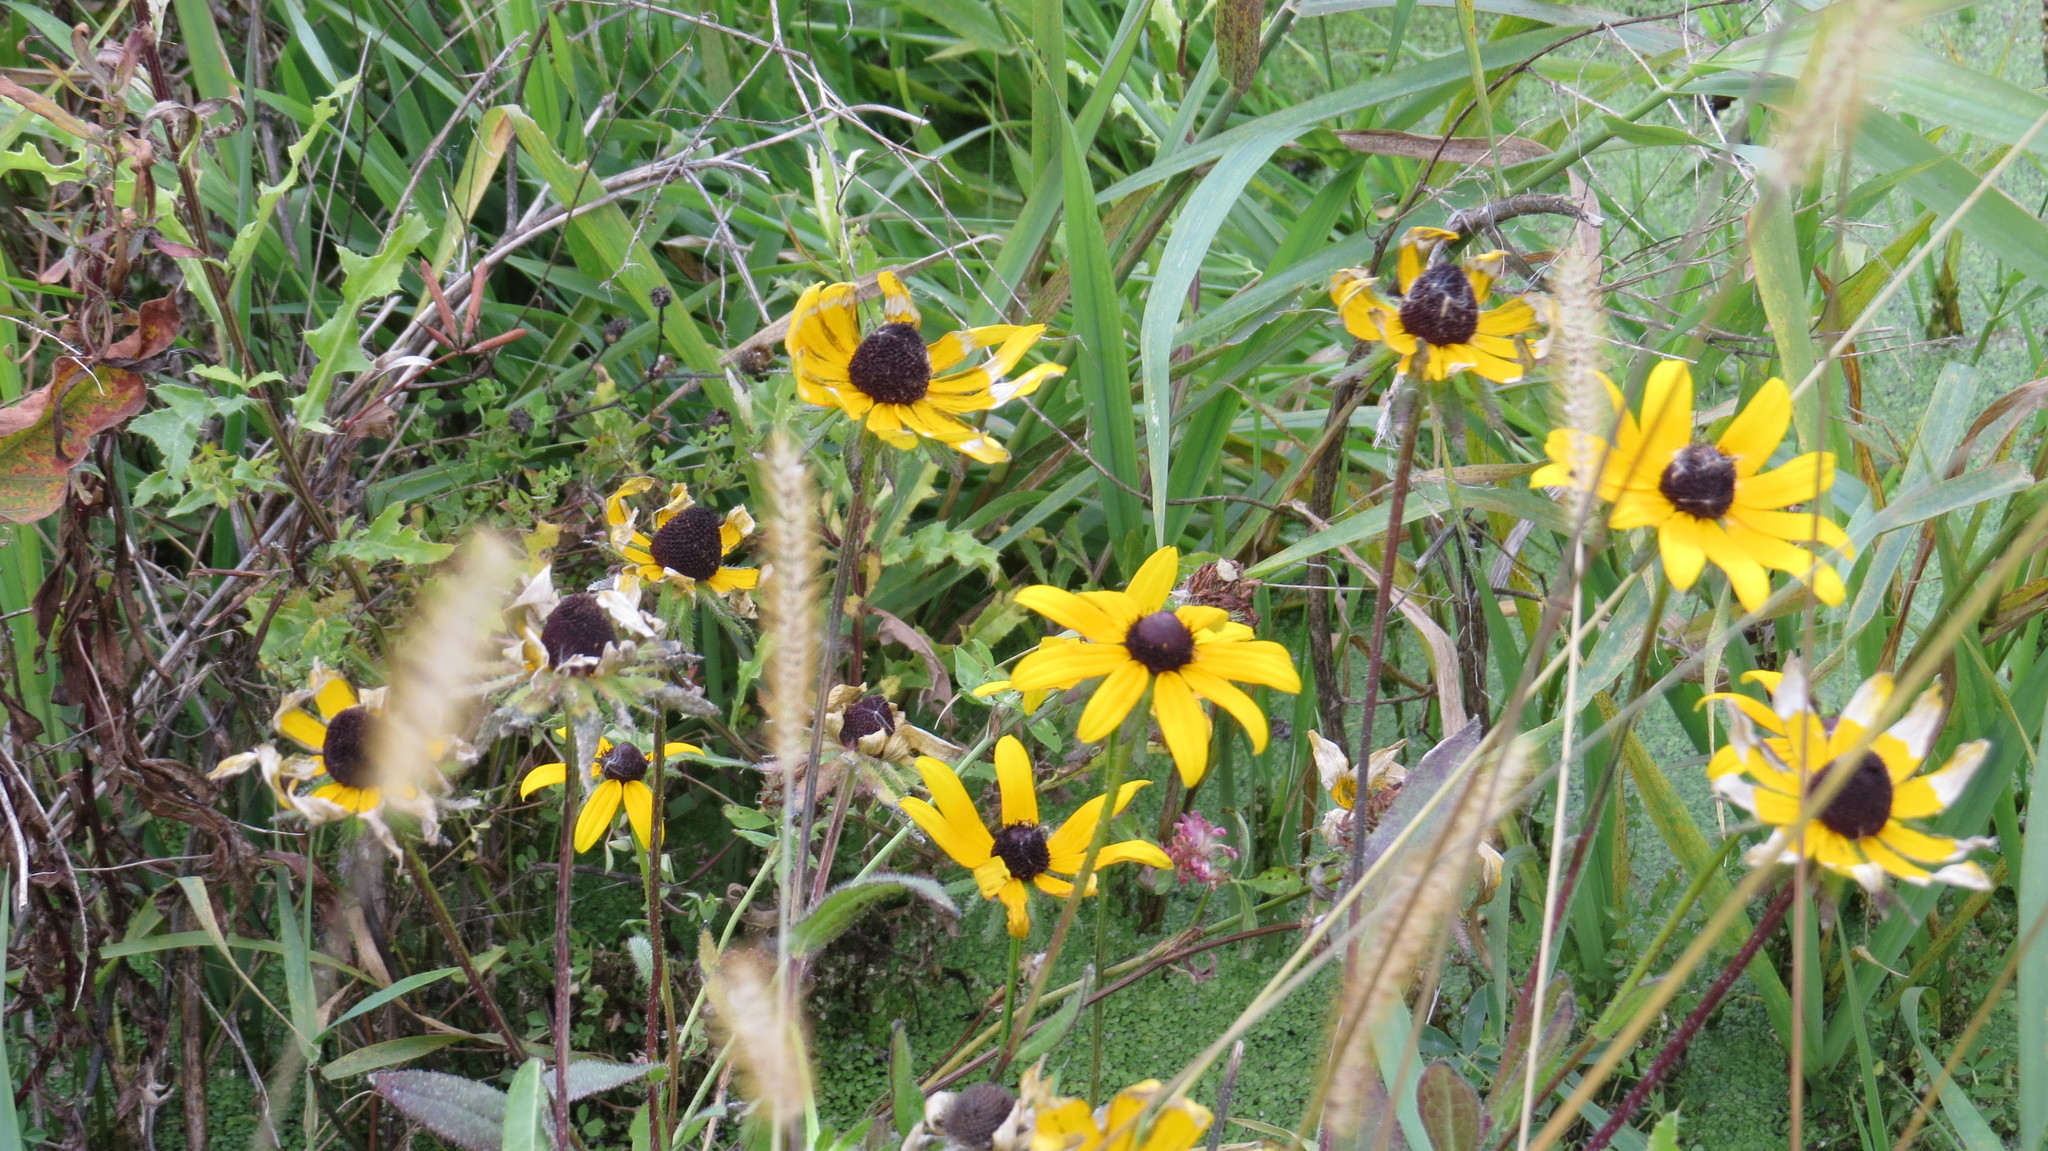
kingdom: Plantae
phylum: Tracheophyta
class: Magnoliopsida
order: Asterales
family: Asteraceae
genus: Rudbeckia
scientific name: Rudbeckia hirta
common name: Black-eyed-susan
